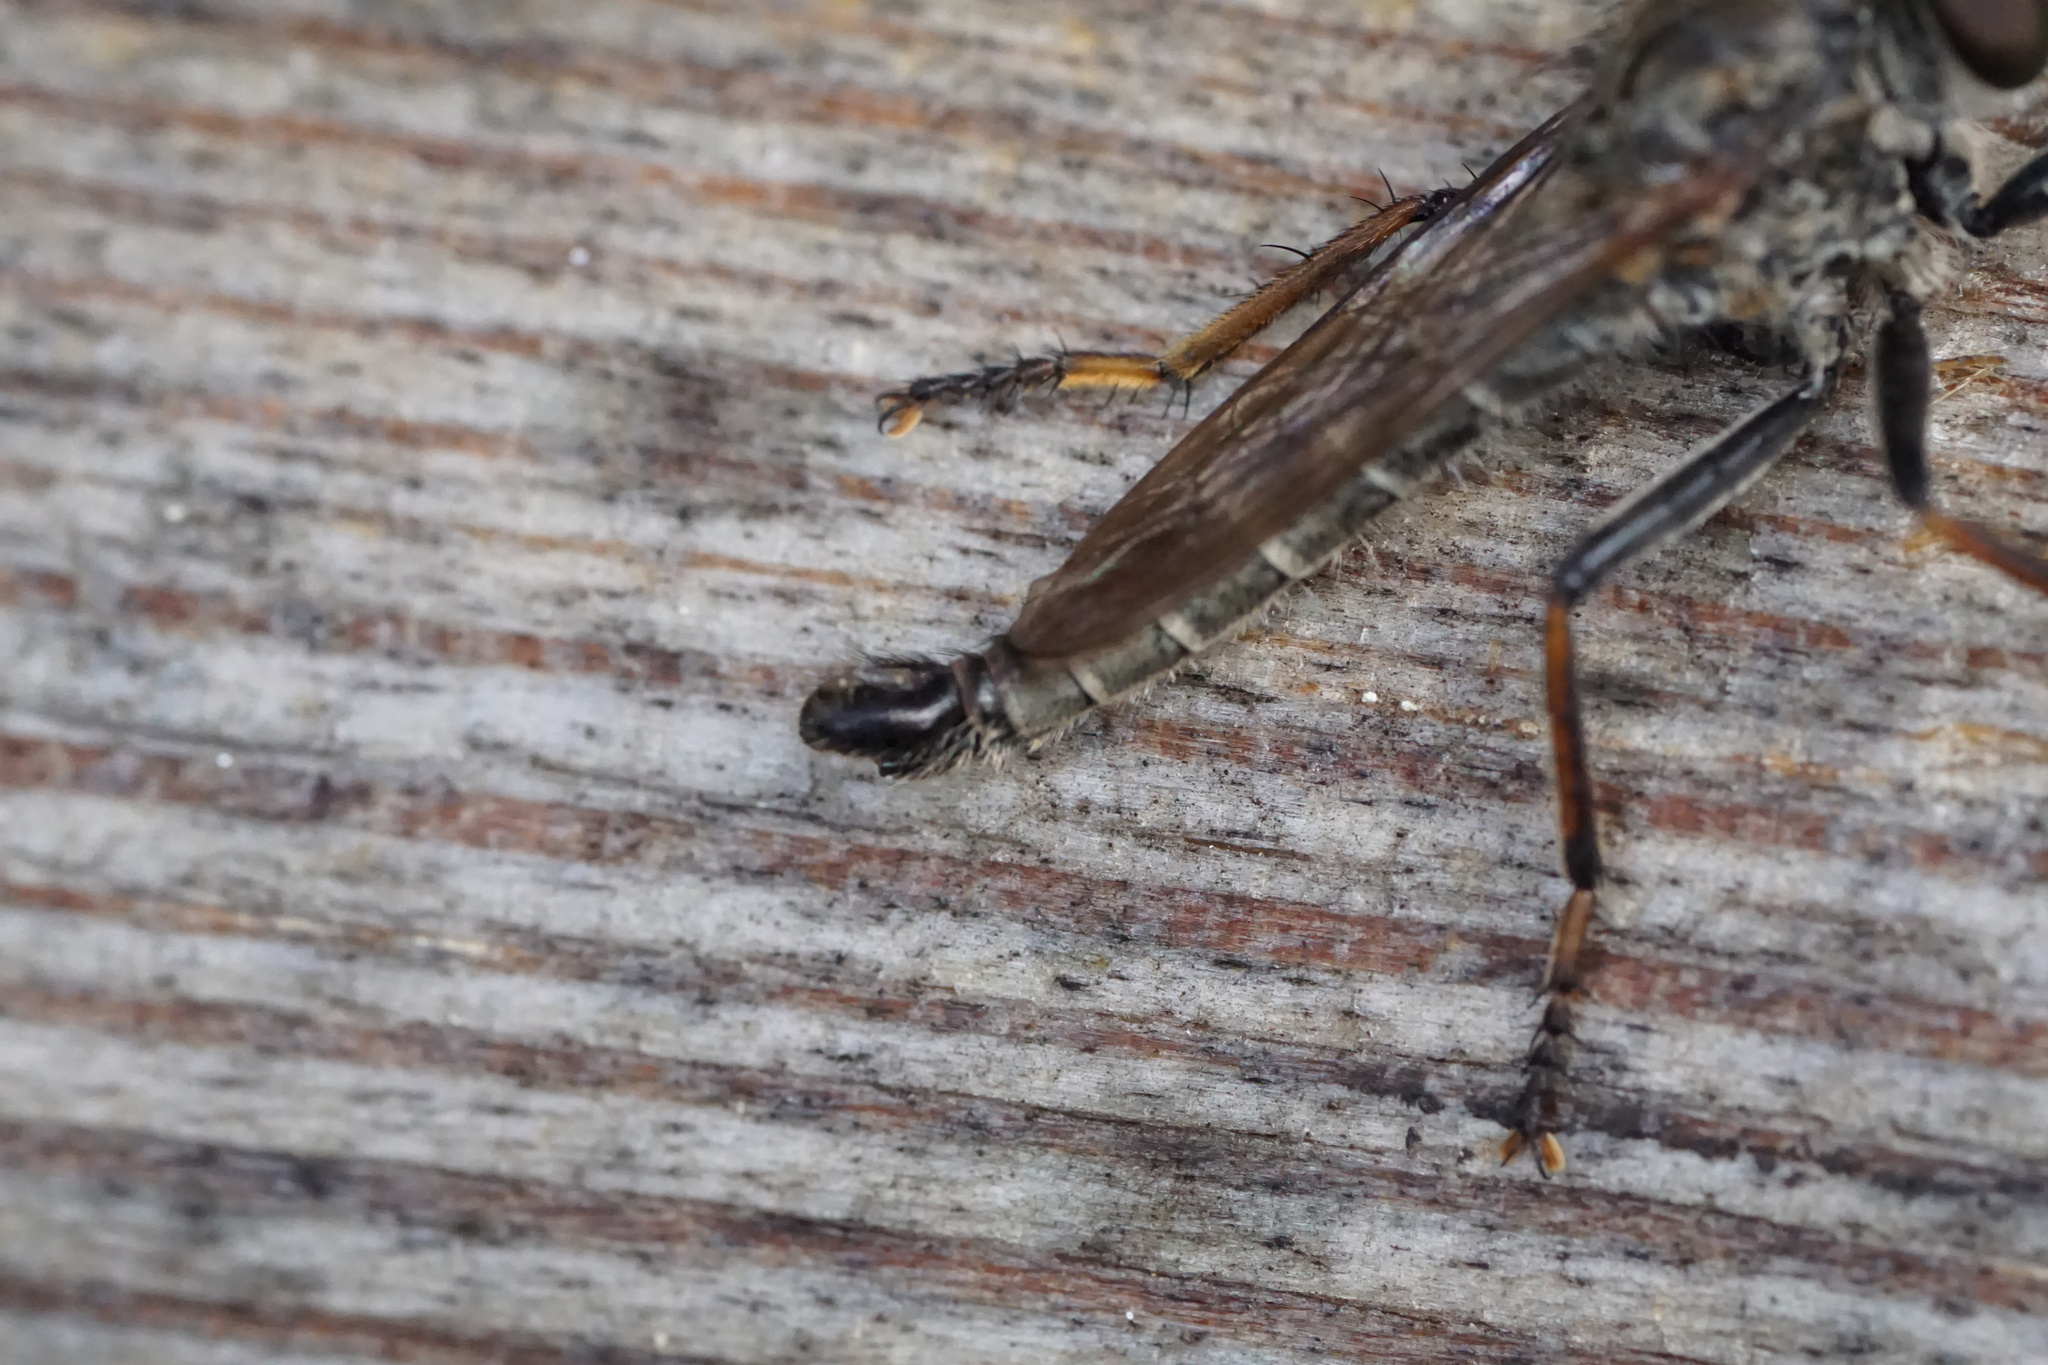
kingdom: Animalia
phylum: Arthropoda
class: Insecta
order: Diptera
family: Asilidae
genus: Machimus
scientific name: Machimus sadyates
